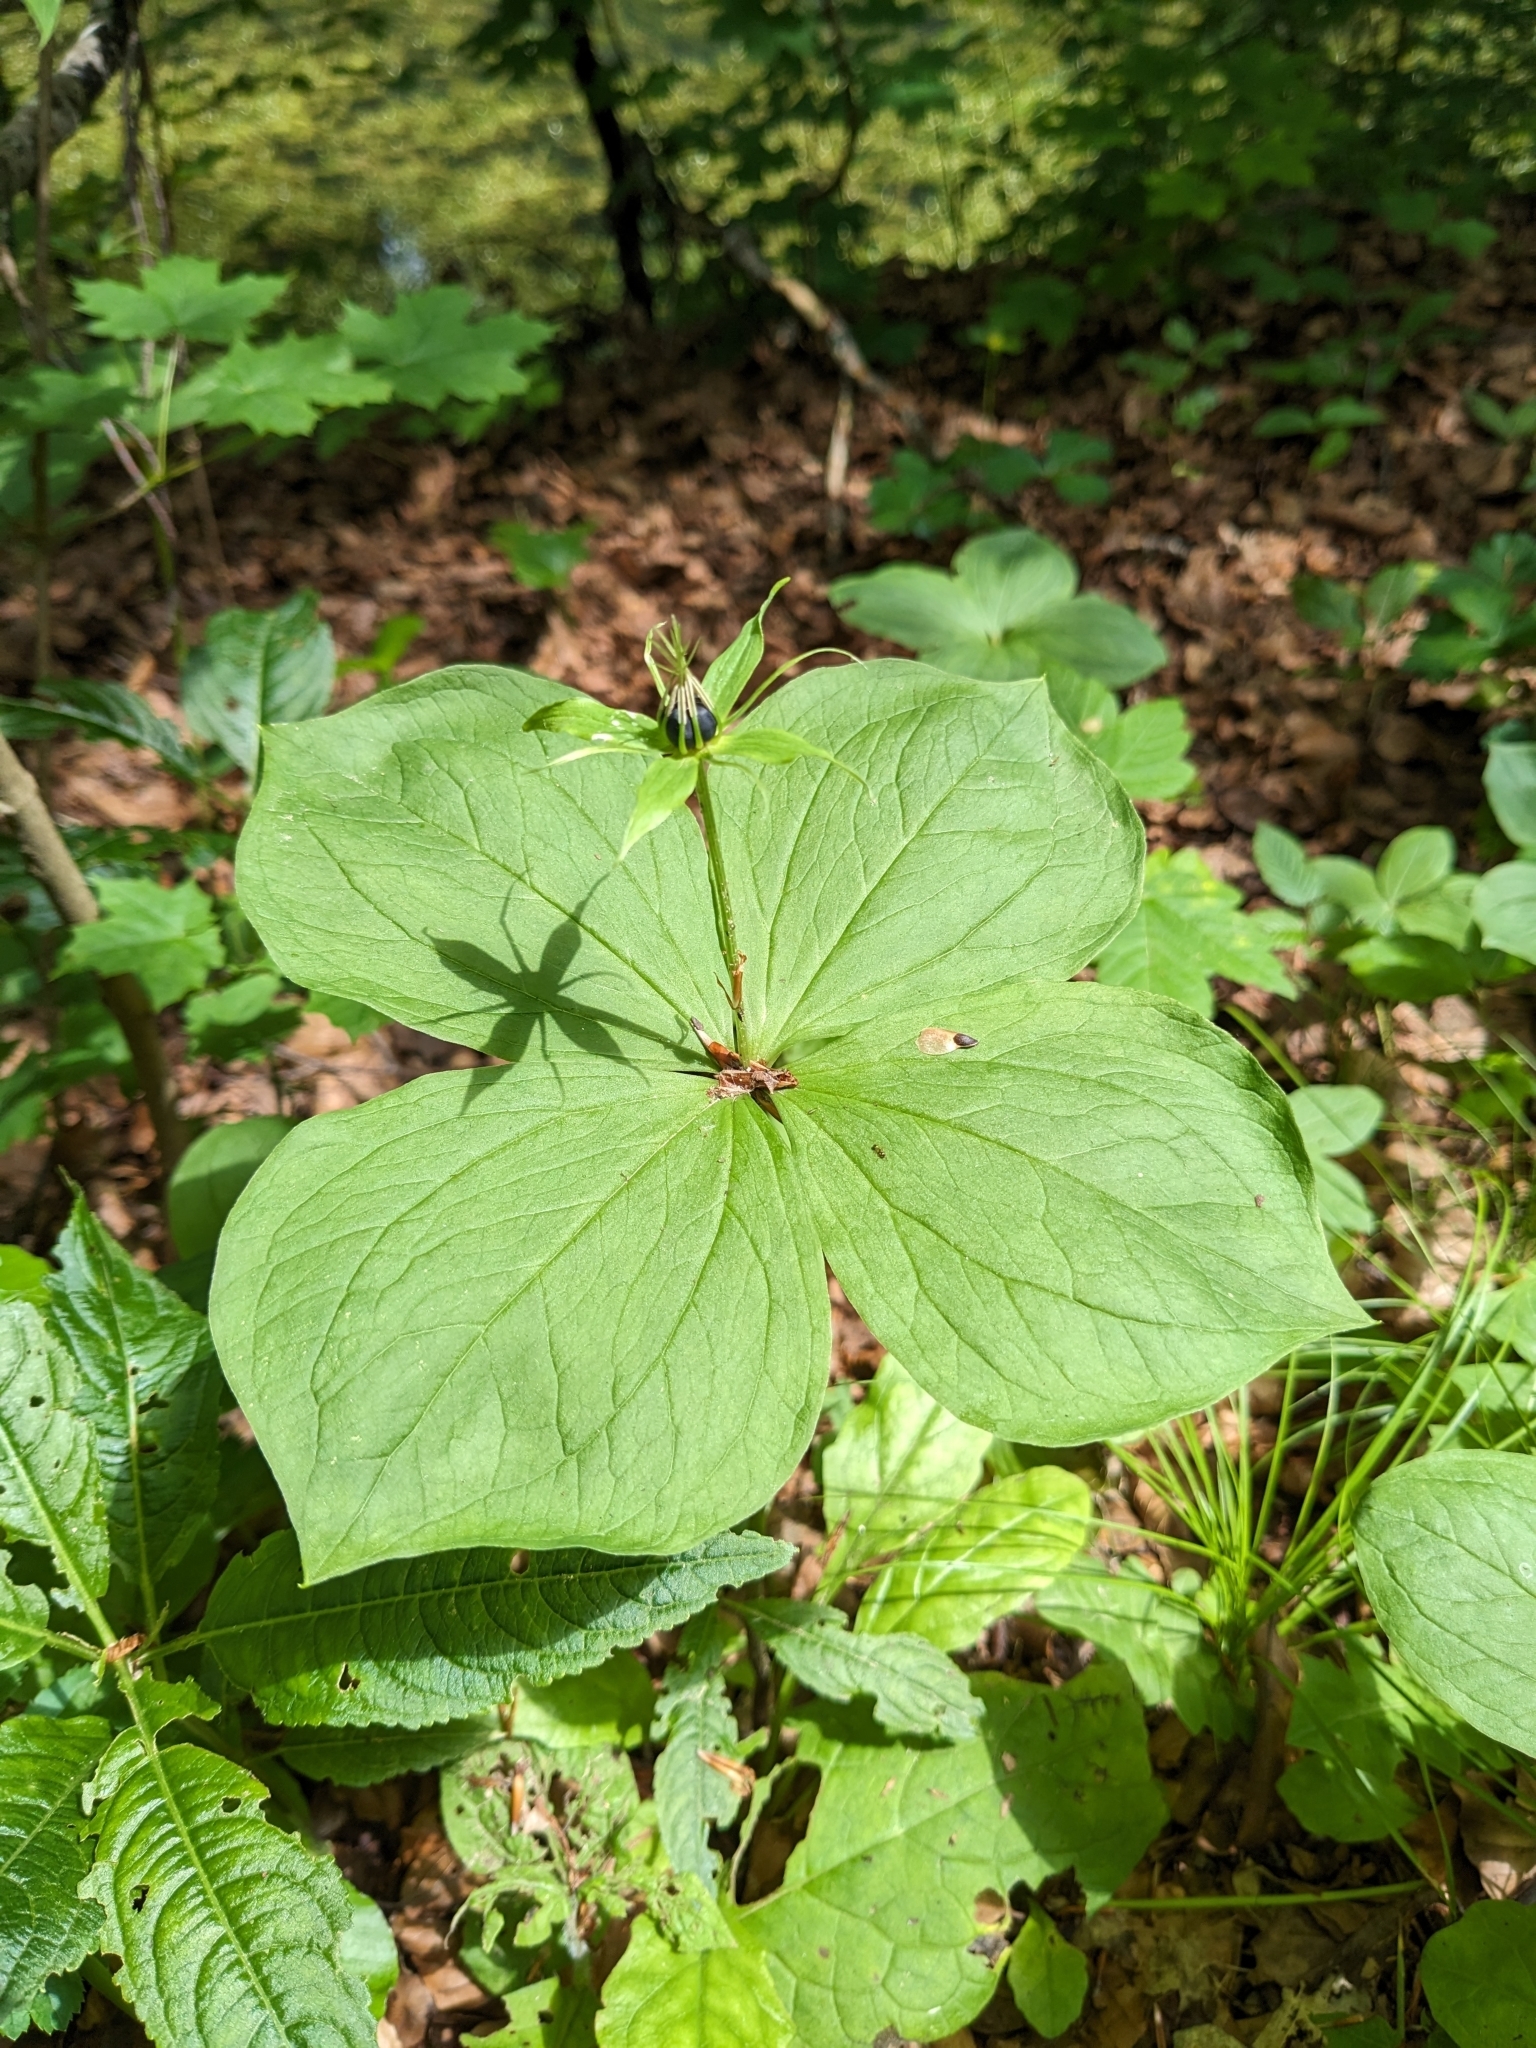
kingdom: Plantae
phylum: Tracheophyta
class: Liliopsida
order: Liliales
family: Melanthiaceae
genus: Paris
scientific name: Paris quadrifolia
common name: Herb-paris
